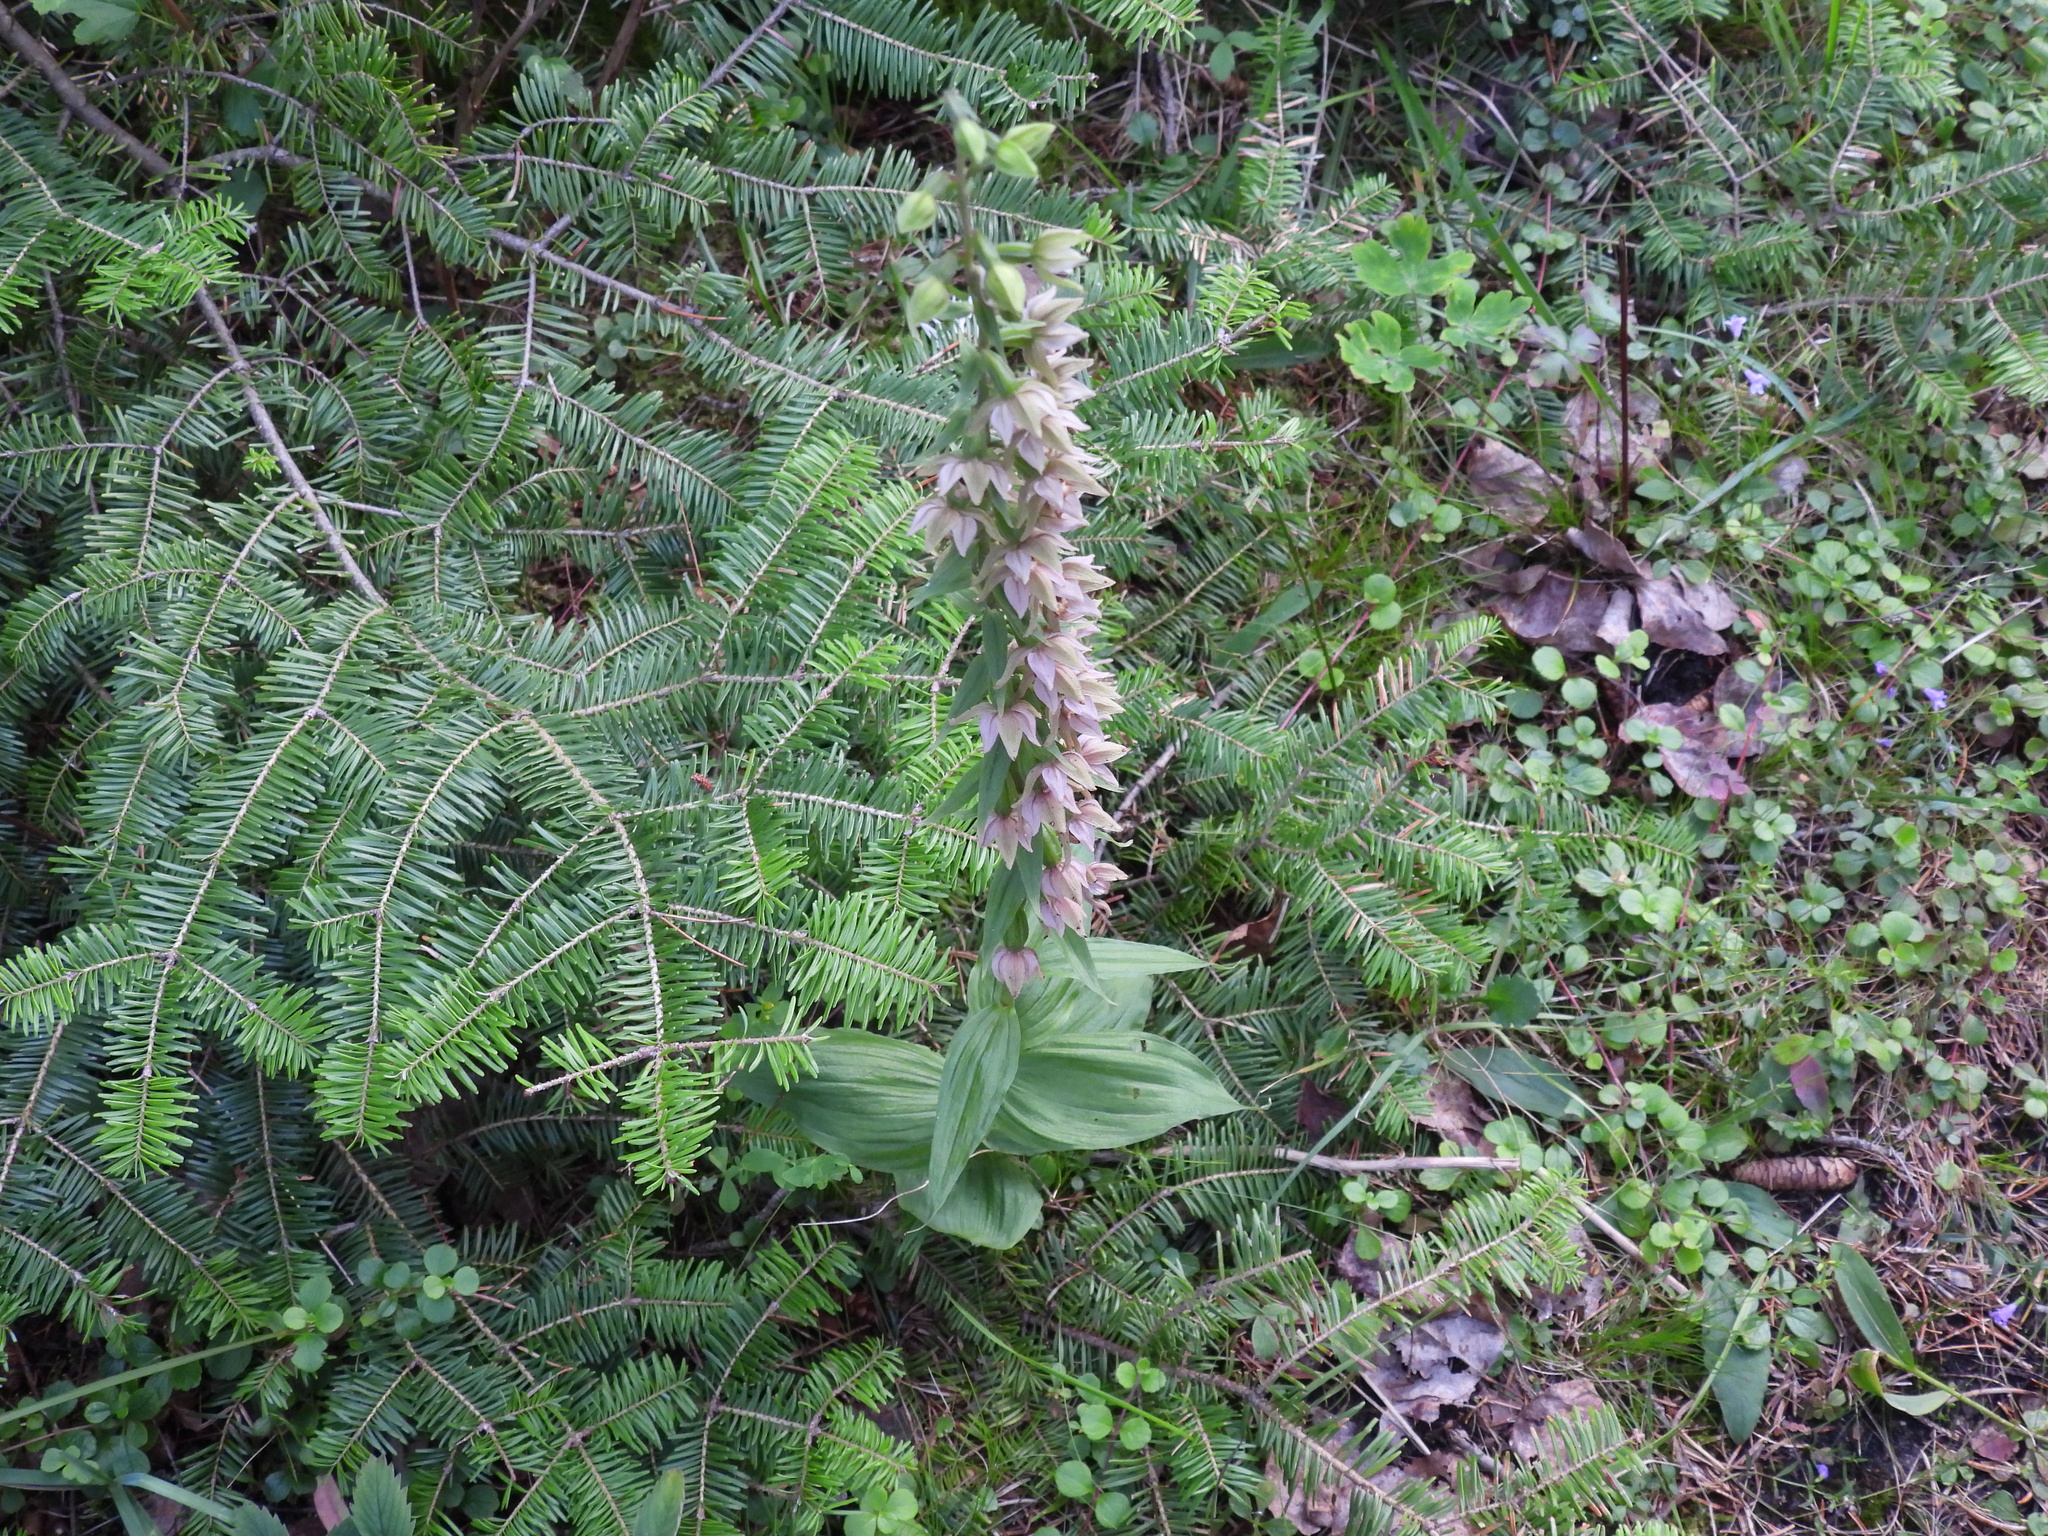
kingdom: Plantae
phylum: Tracheophyta
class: Liliopsida
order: Asparagales
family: Orchidaceae
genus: Epipactis
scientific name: Epipactis helleborine
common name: Broad-leaved helleborine
